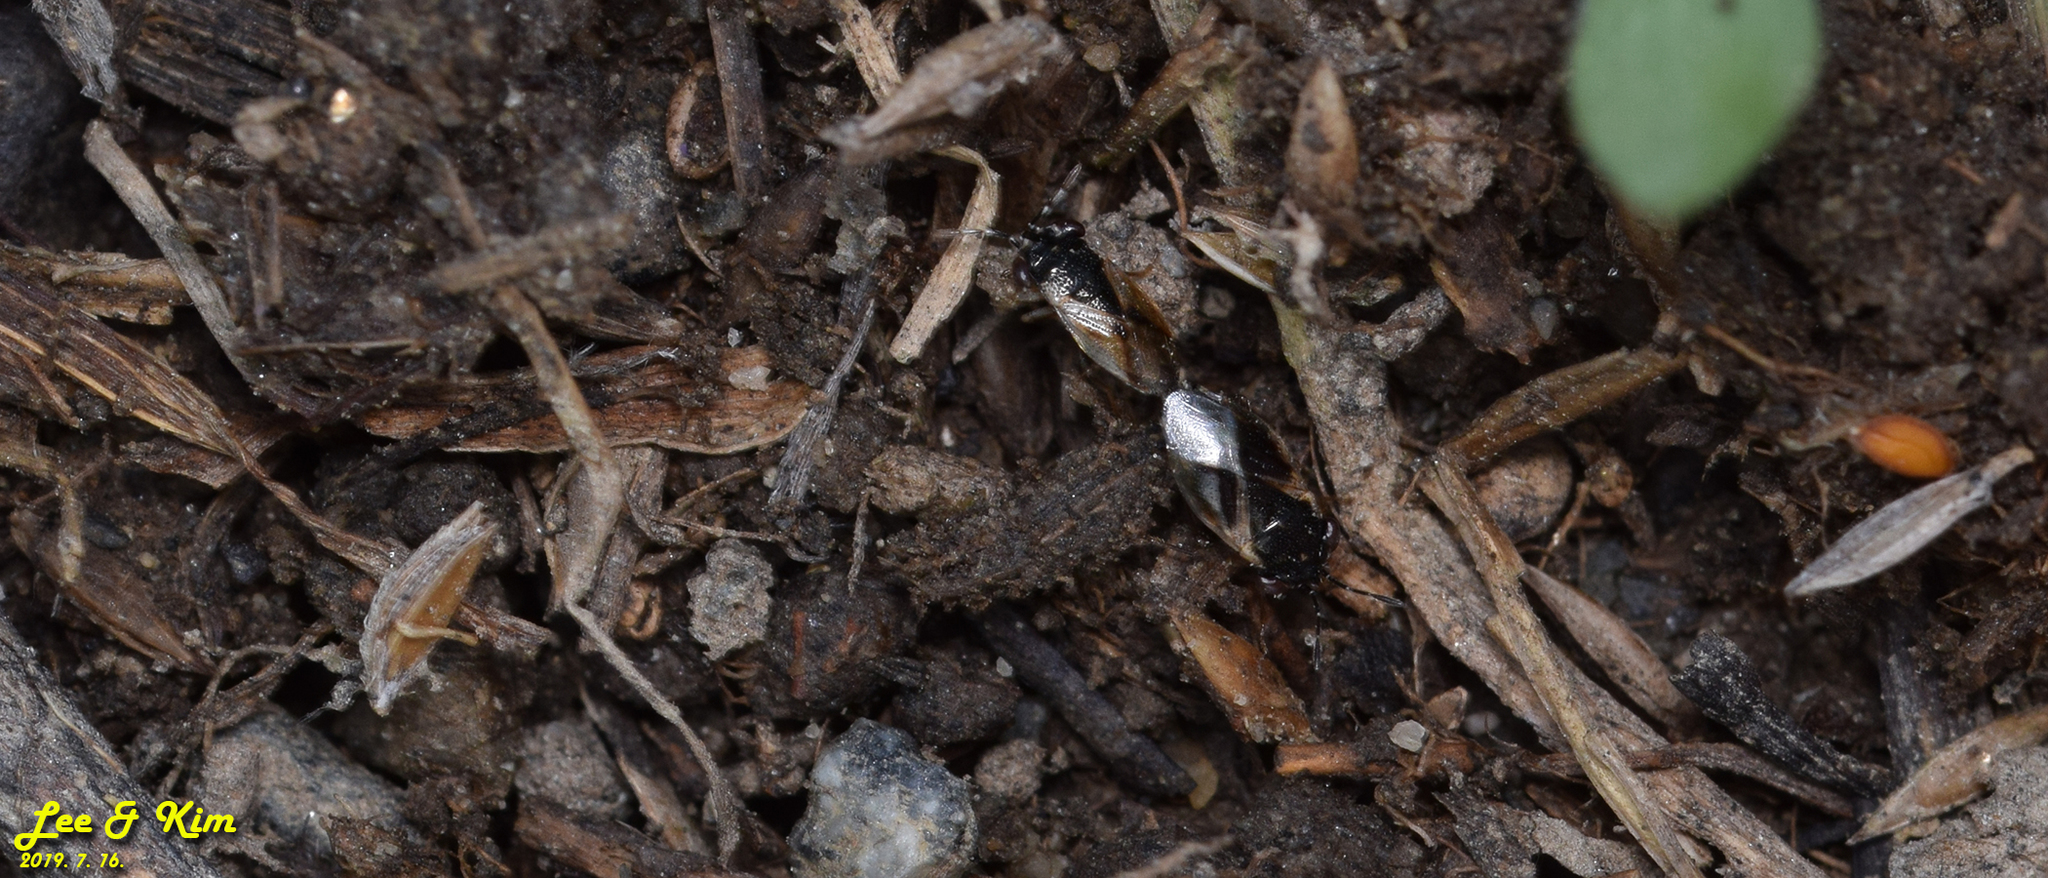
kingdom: Animalia
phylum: Arthropoda
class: Insecta
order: Hemiptera
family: Geocoridae
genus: Geocoris
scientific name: Geocoris pallidipennis
